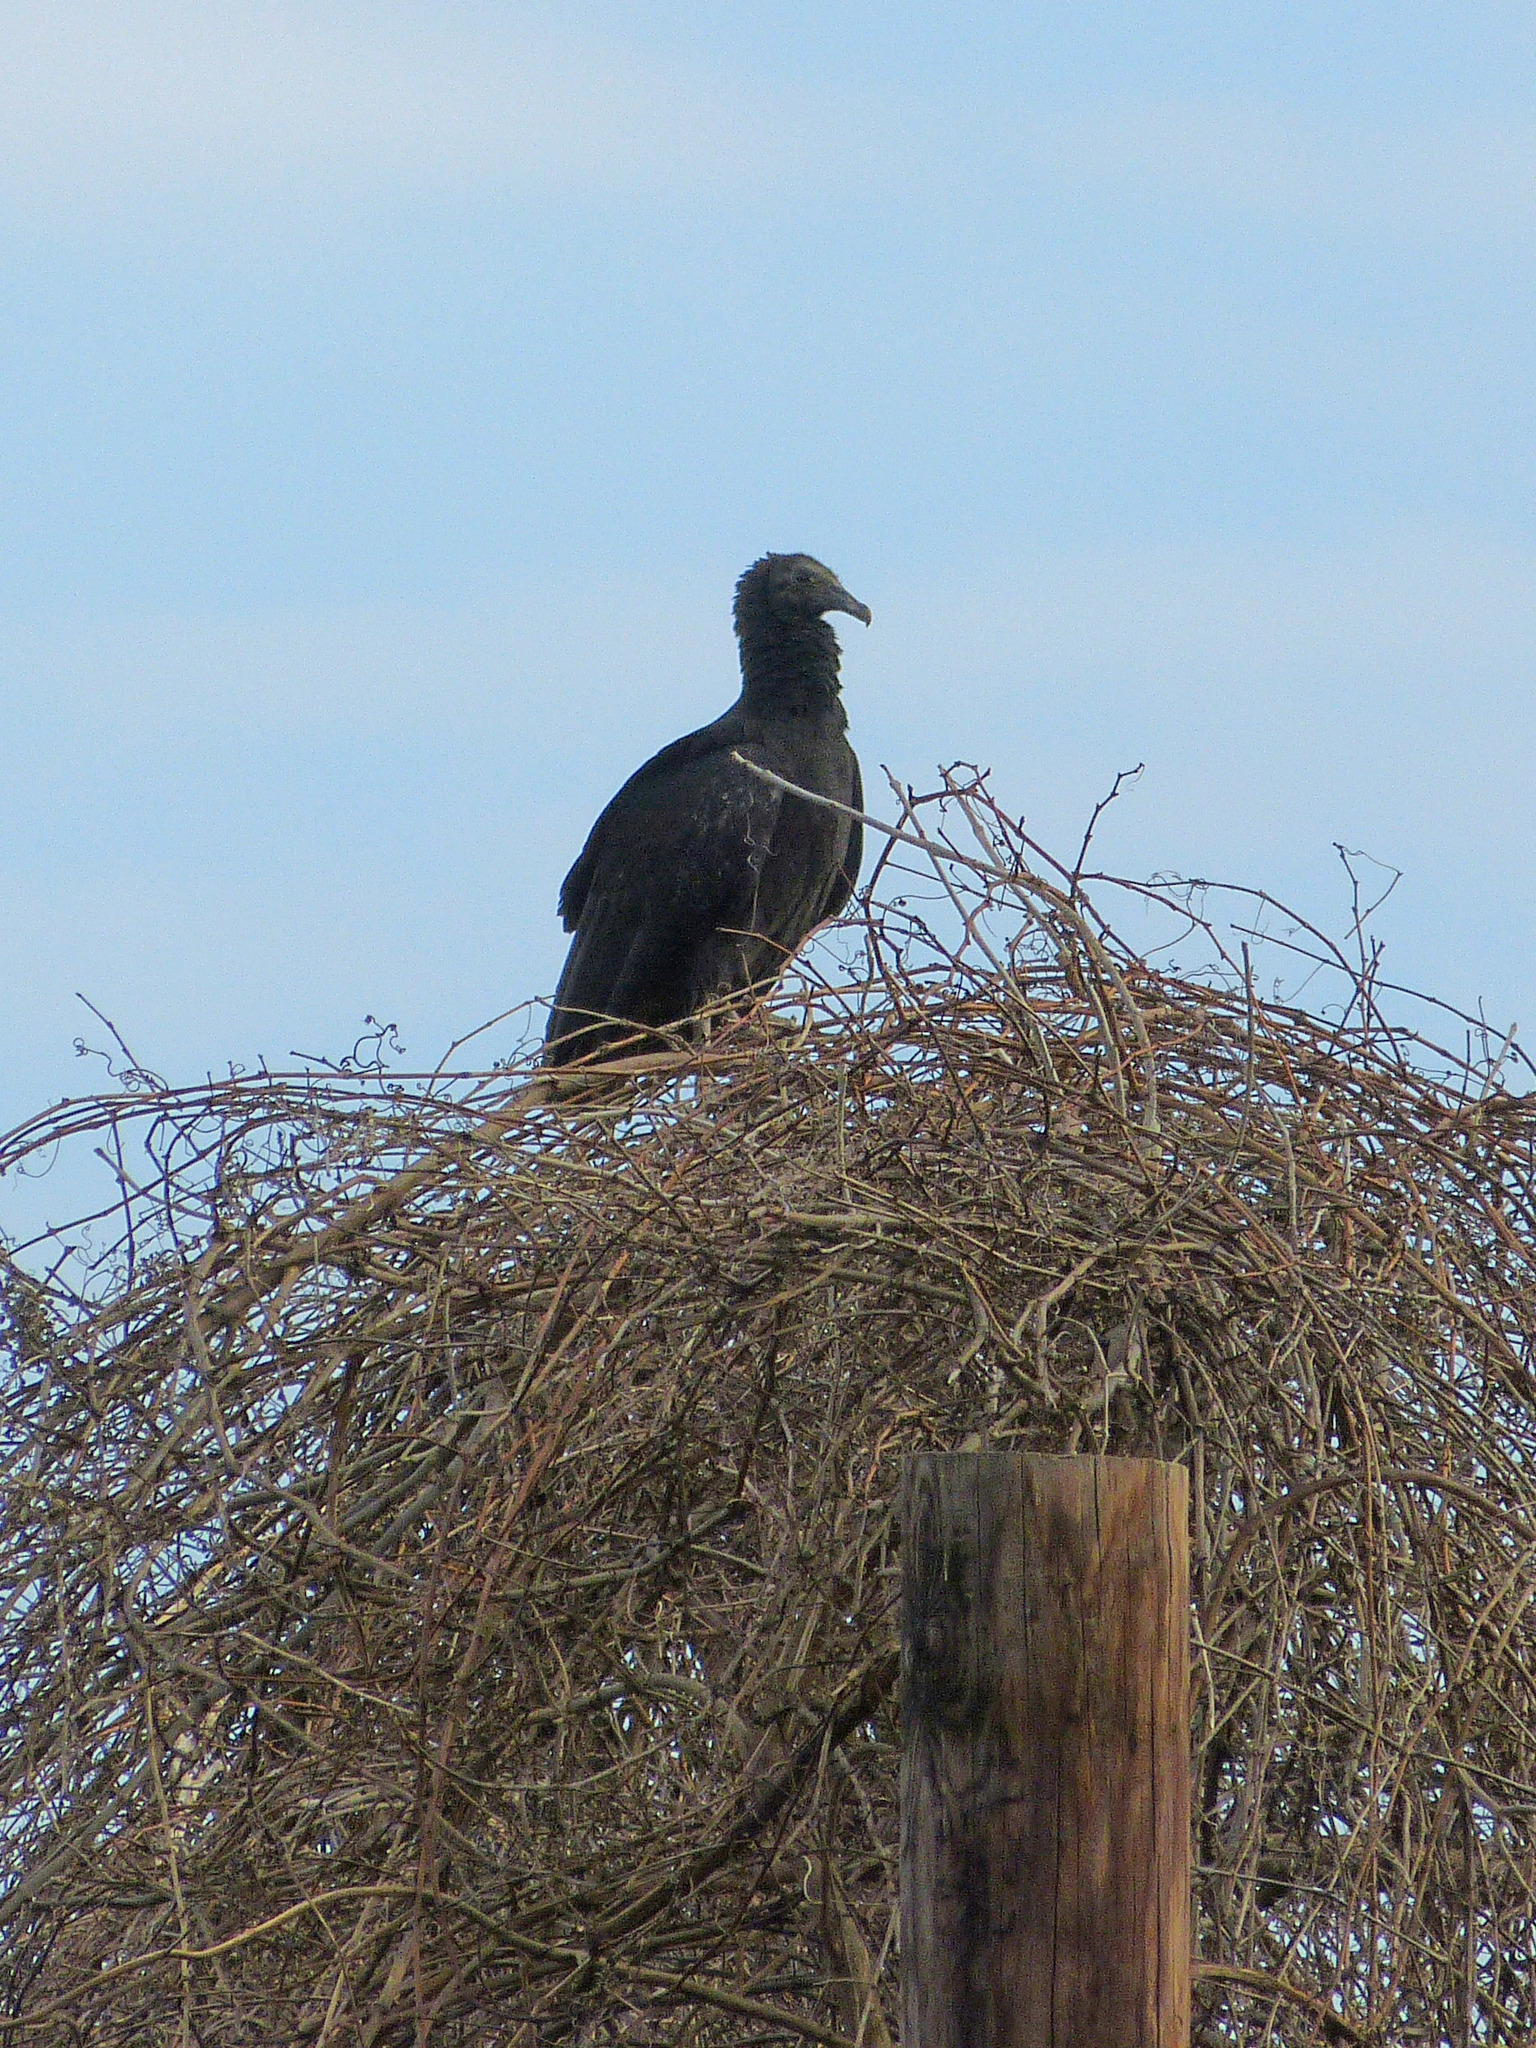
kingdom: Animalia
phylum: Chordata
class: Aves
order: Accipitriformes
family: Cathartidae
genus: Coragyps
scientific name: Coragyps atratus
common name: Black vulture
